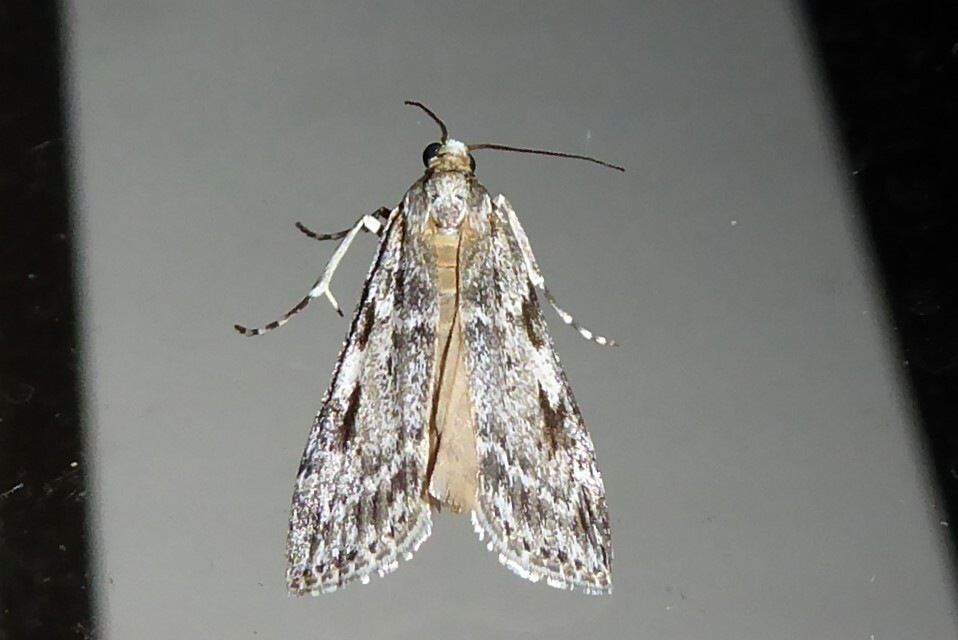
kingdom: Animalia
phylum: Arthropoda
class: Insecta
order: Lepidoptera
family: Crambidae
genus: Scoparia
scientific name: Scoparia halopis
